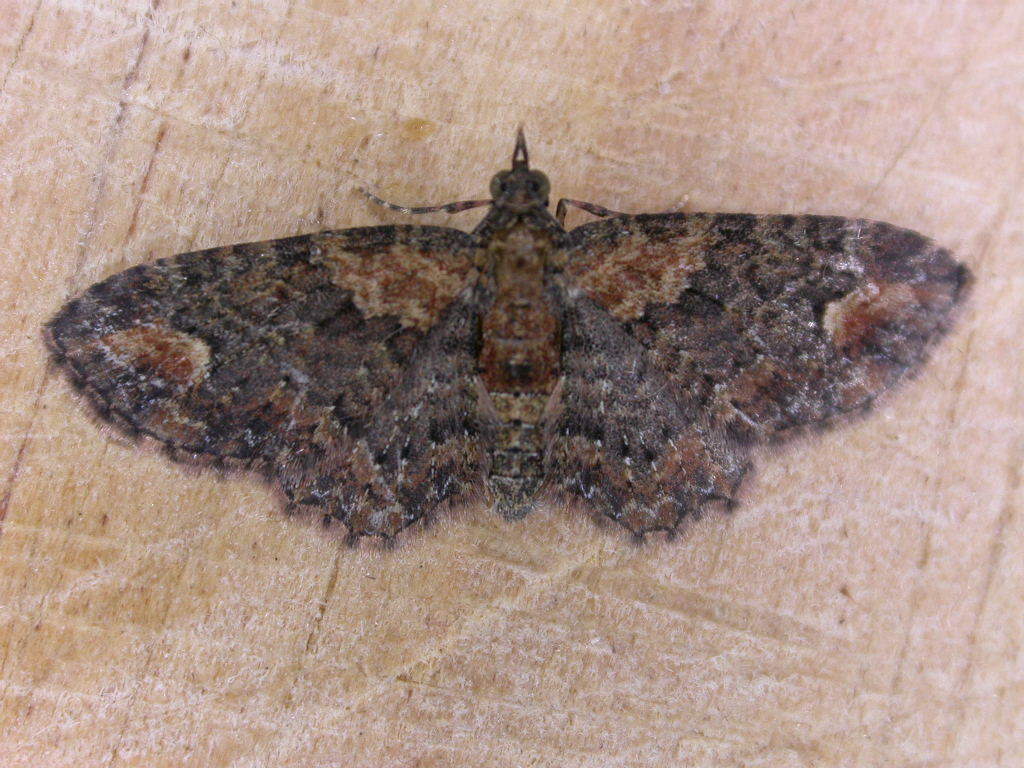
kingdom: Animalia
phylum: Arthropoda
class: Insecta
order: Lepidoptera
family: Geometridae
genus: Pasiphilodes
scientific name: Pasiphilodes testulata
